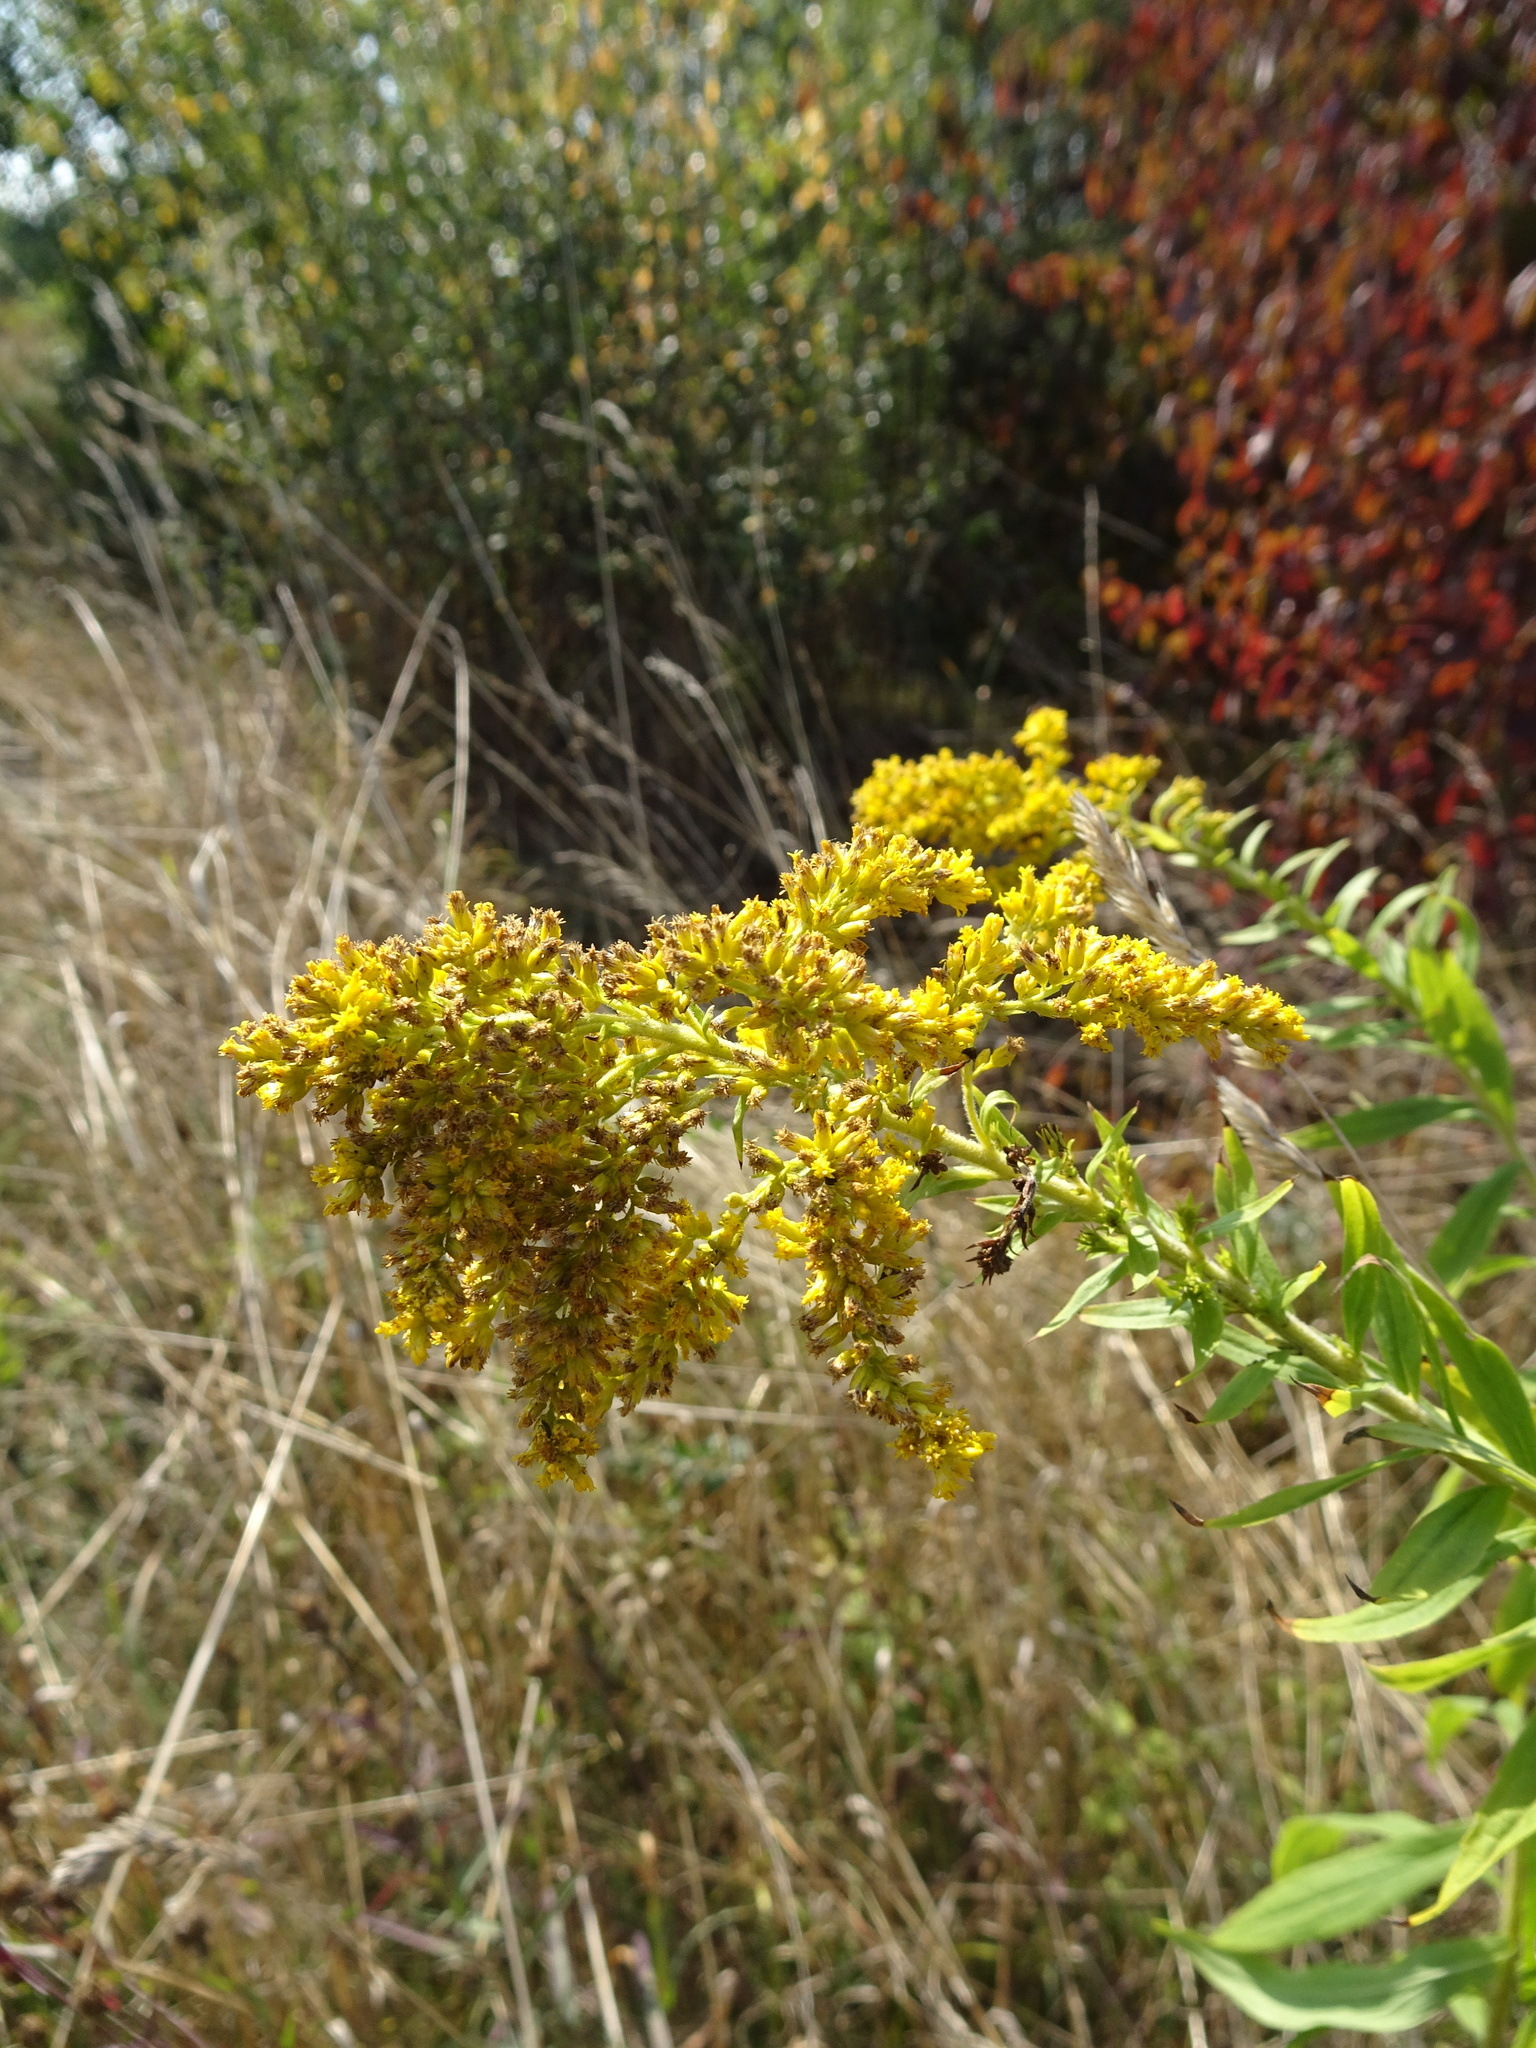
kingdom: Plantae
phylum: Tracheophyta
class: Magnoliopsida
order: Asterales
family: Asteraceae
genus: Solidago
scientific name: Solidago canadensis
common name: Canada goldenrod
